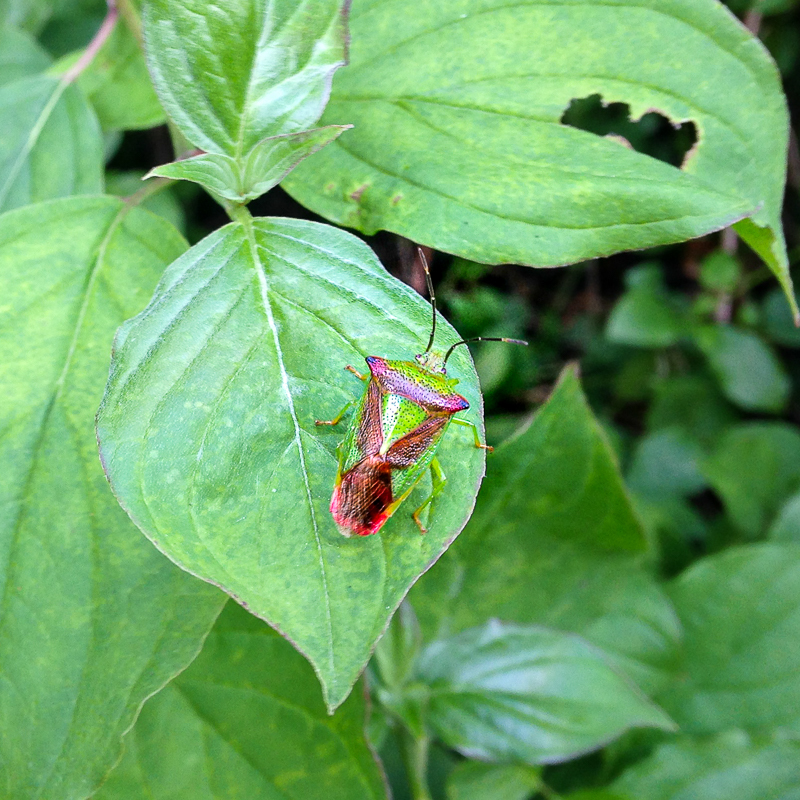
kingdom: Animalia
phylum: Arthropoda
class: Insecta
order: Hemiptera
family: Acanthosomatidae
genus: Acanthosoma
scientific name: Acanthosoma haemorrhoidale
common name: Hawthorn shieldbug
